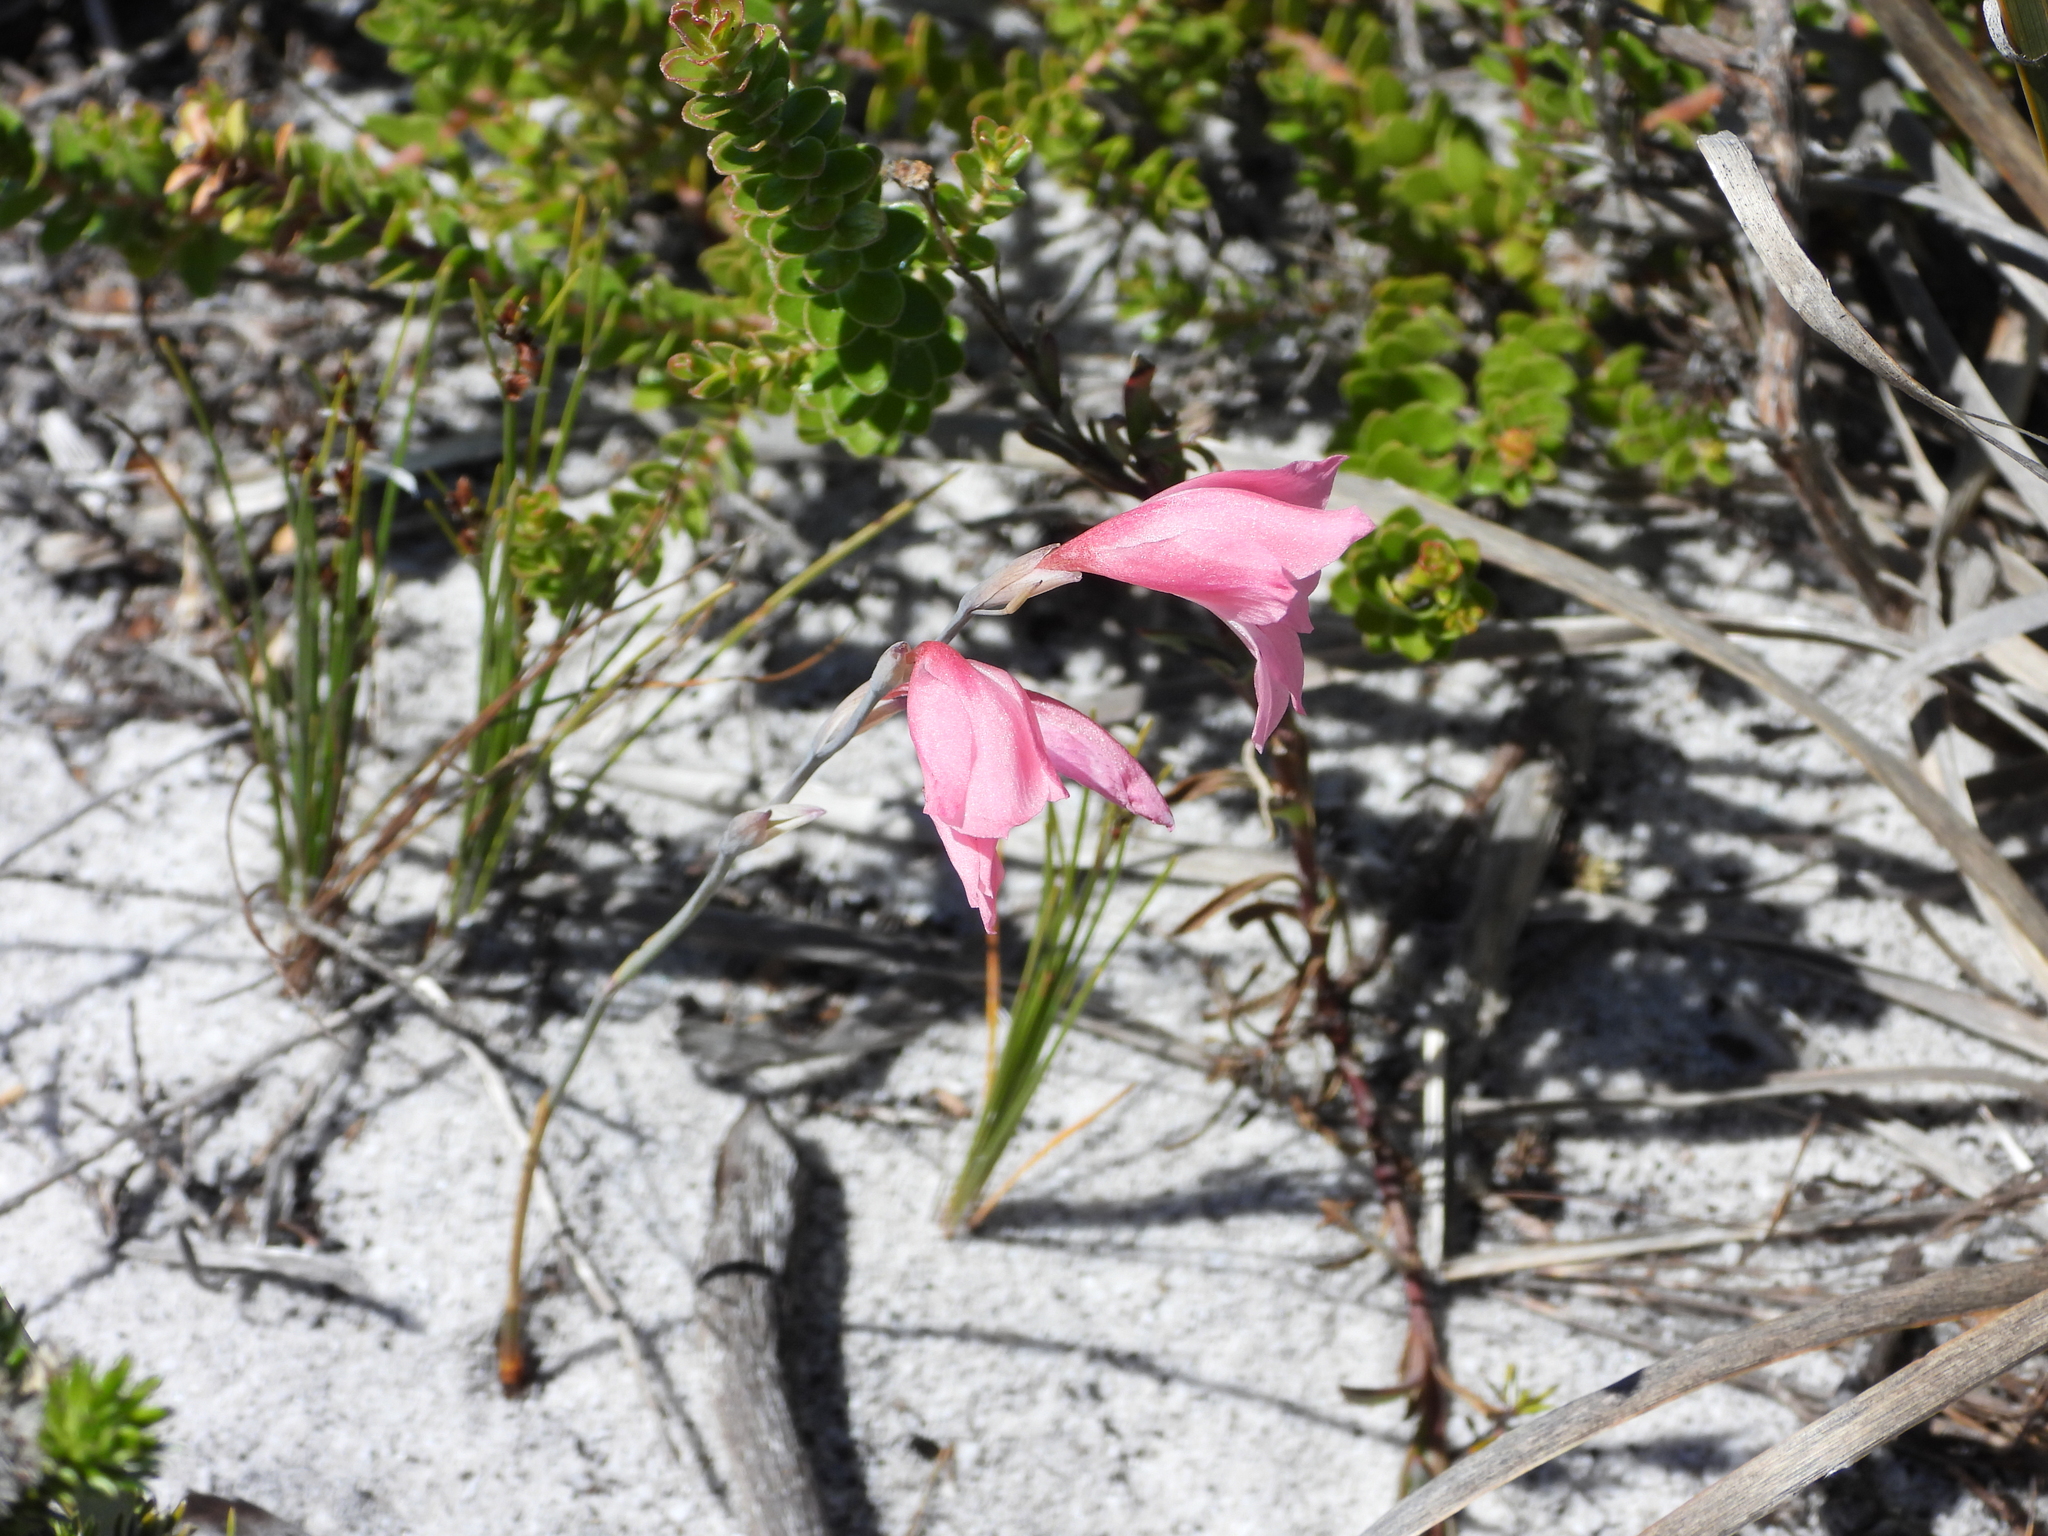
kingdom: Plantae
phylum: Tracheophyta
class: Liliopsida
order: Asparagales
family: Iridaceae
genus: Gladiolus
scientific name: Gladiolus brevifolius
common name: March pypie
